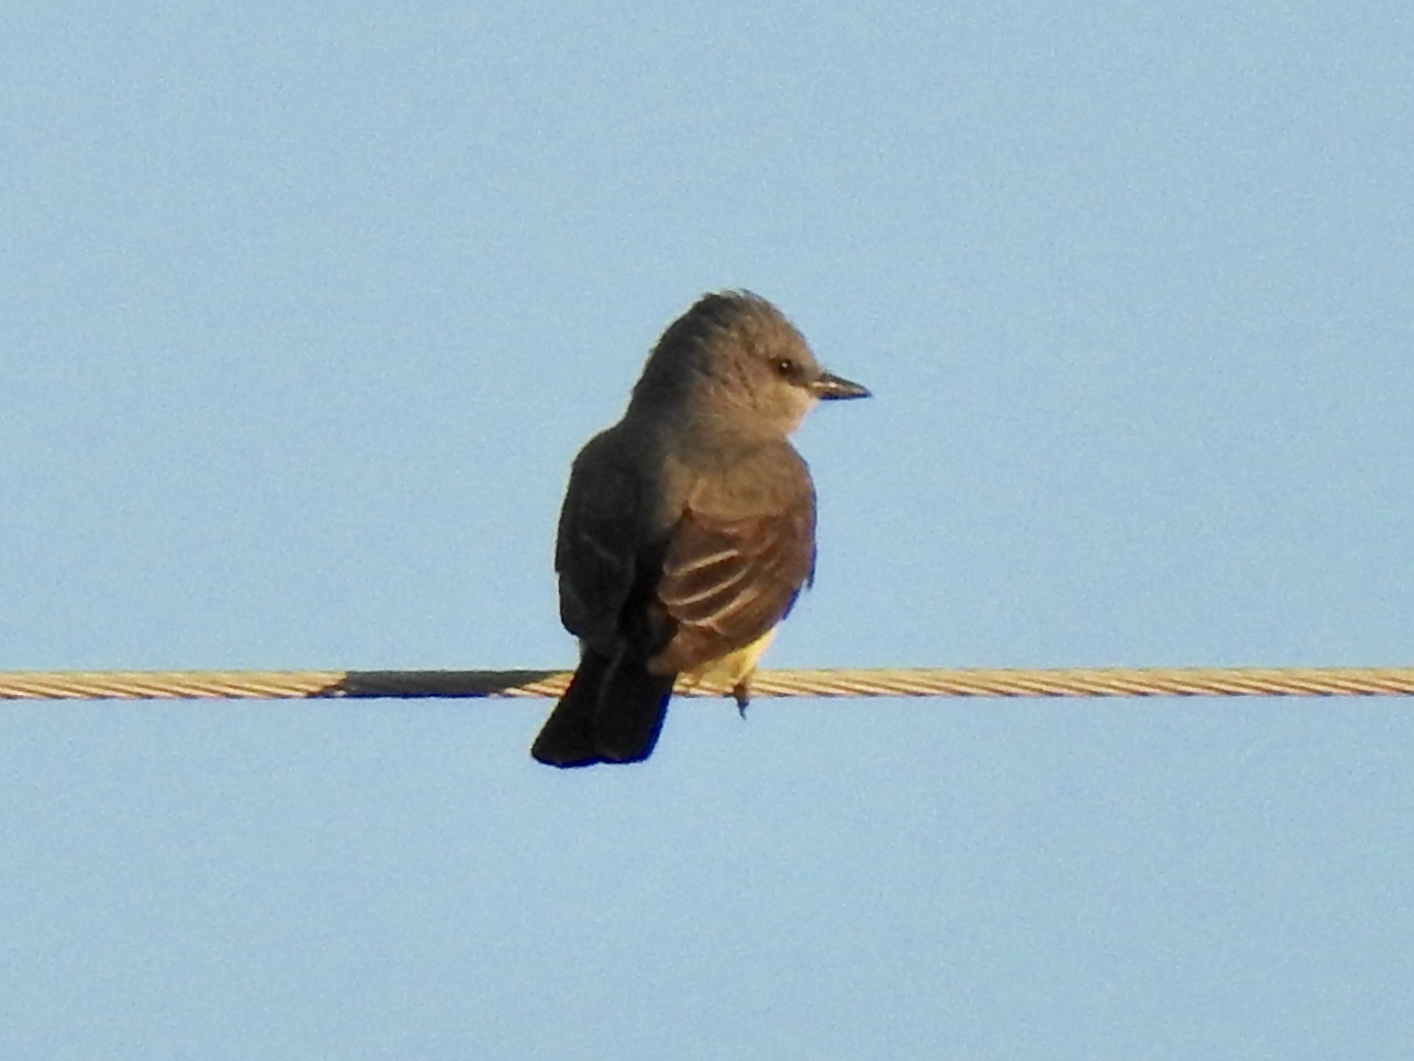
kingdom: Animalia
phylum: Chordata
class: Aves
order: Passeriformes
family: Tyrannidae
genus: Tyrannus
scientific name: Tyrannus verticalis
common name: Western kingbird
